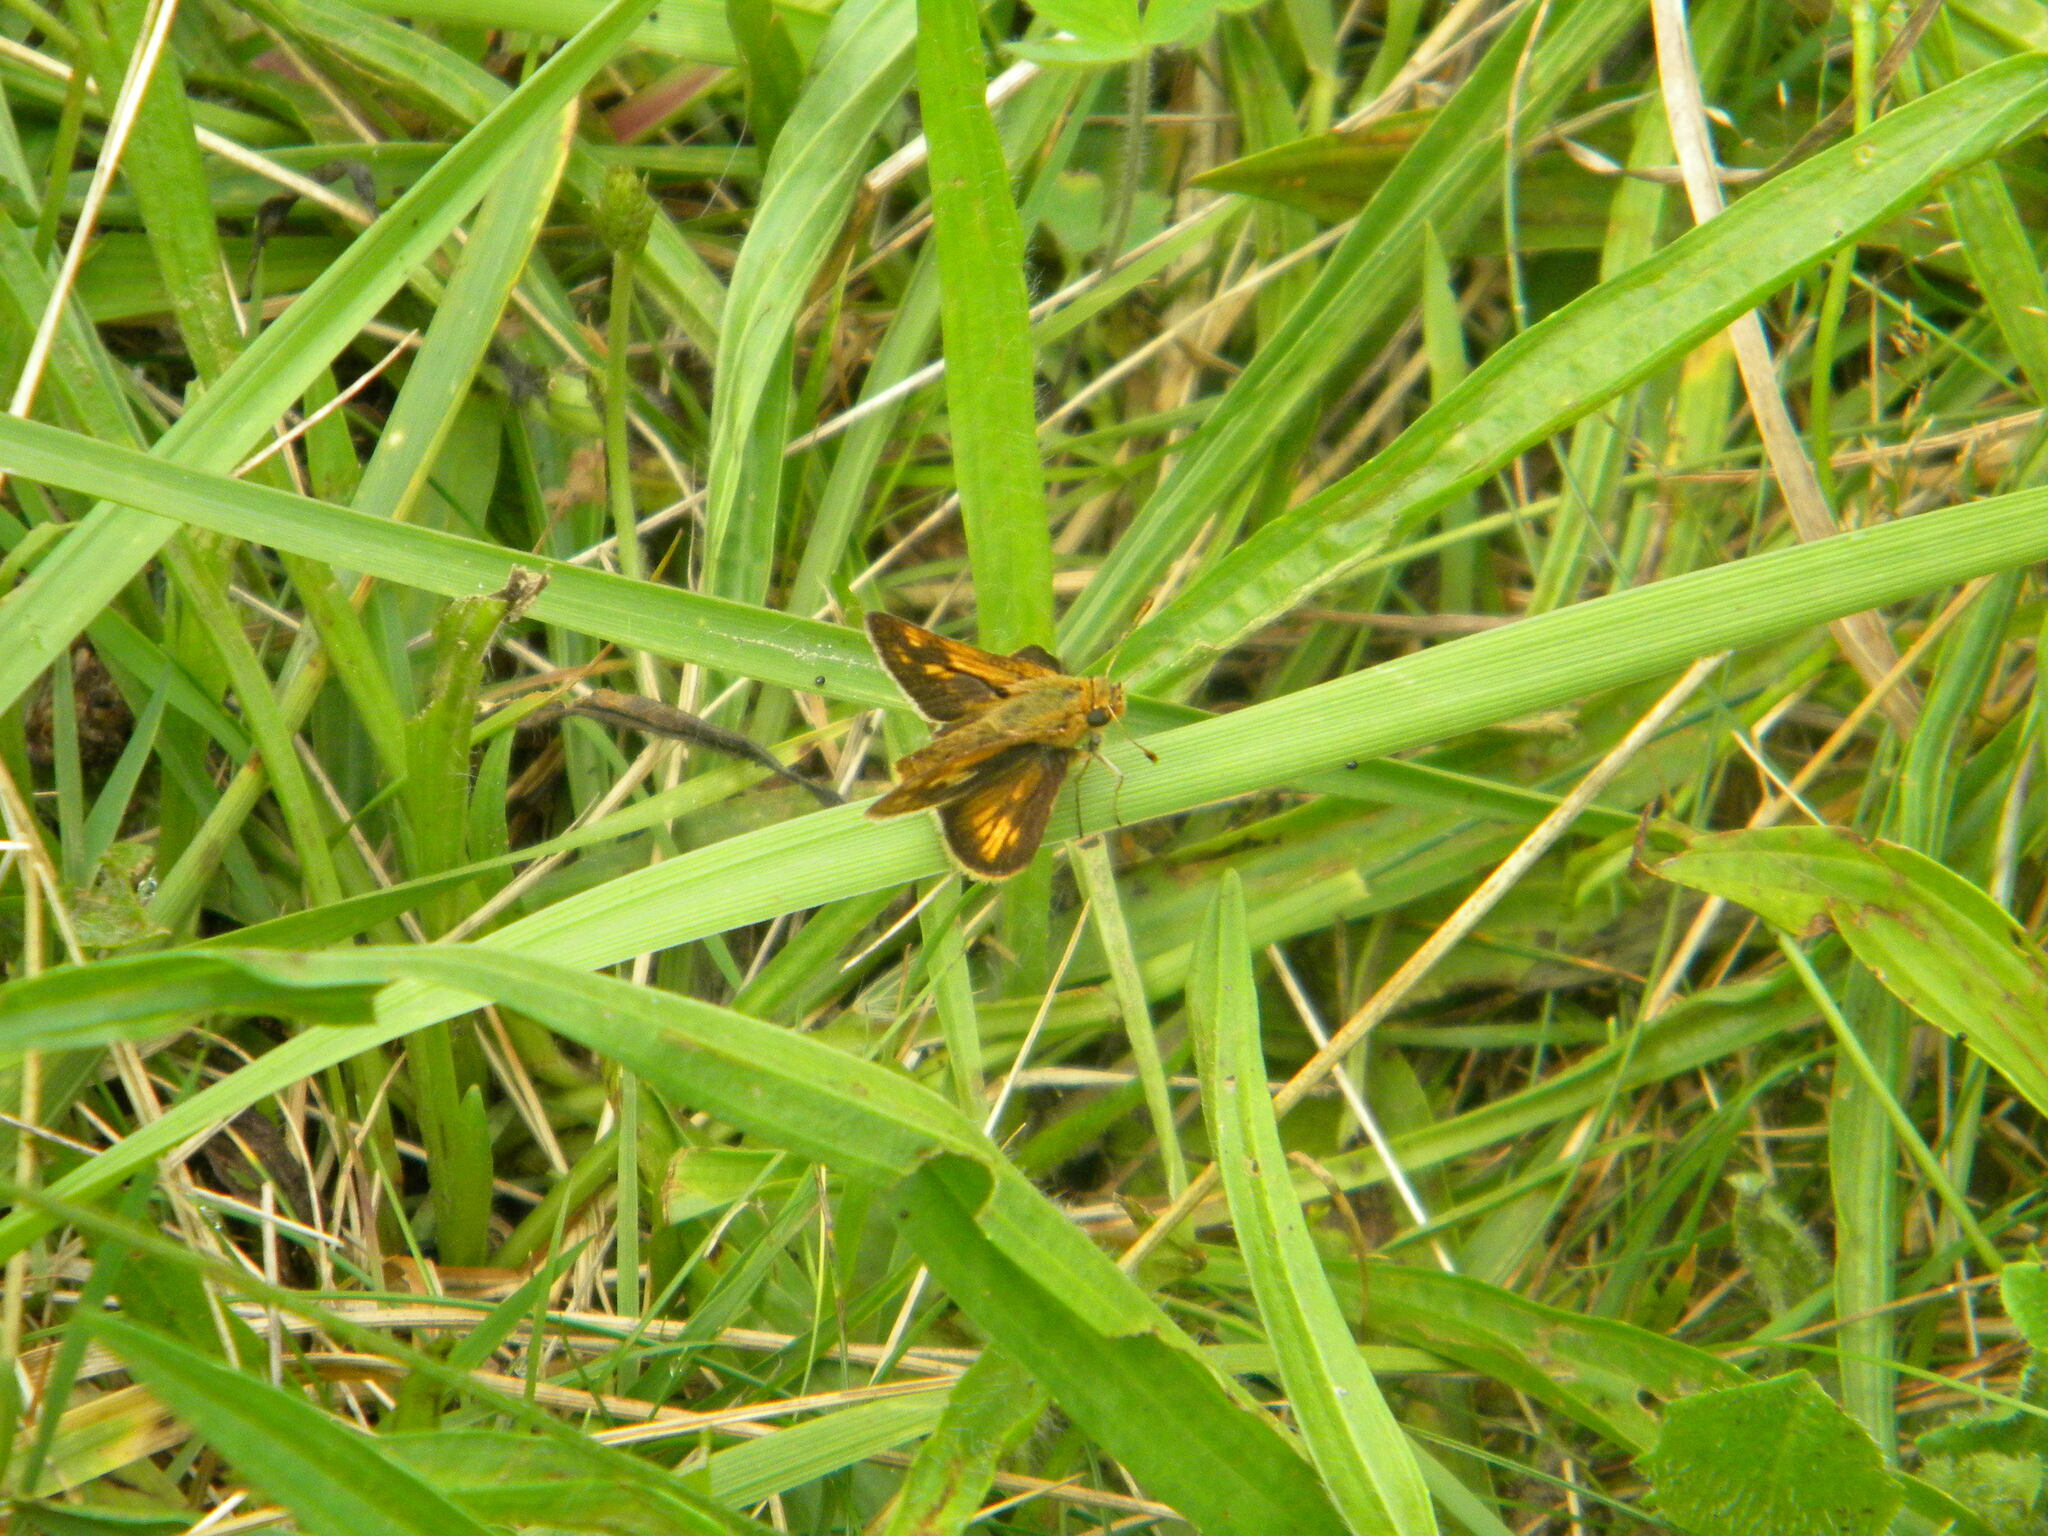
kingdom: Animalia
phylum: Arthropoda
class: Insecta
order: Lepidoptera
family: Hesperiidae
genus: Polites
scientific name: Polites coras
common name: Peck's skipper
